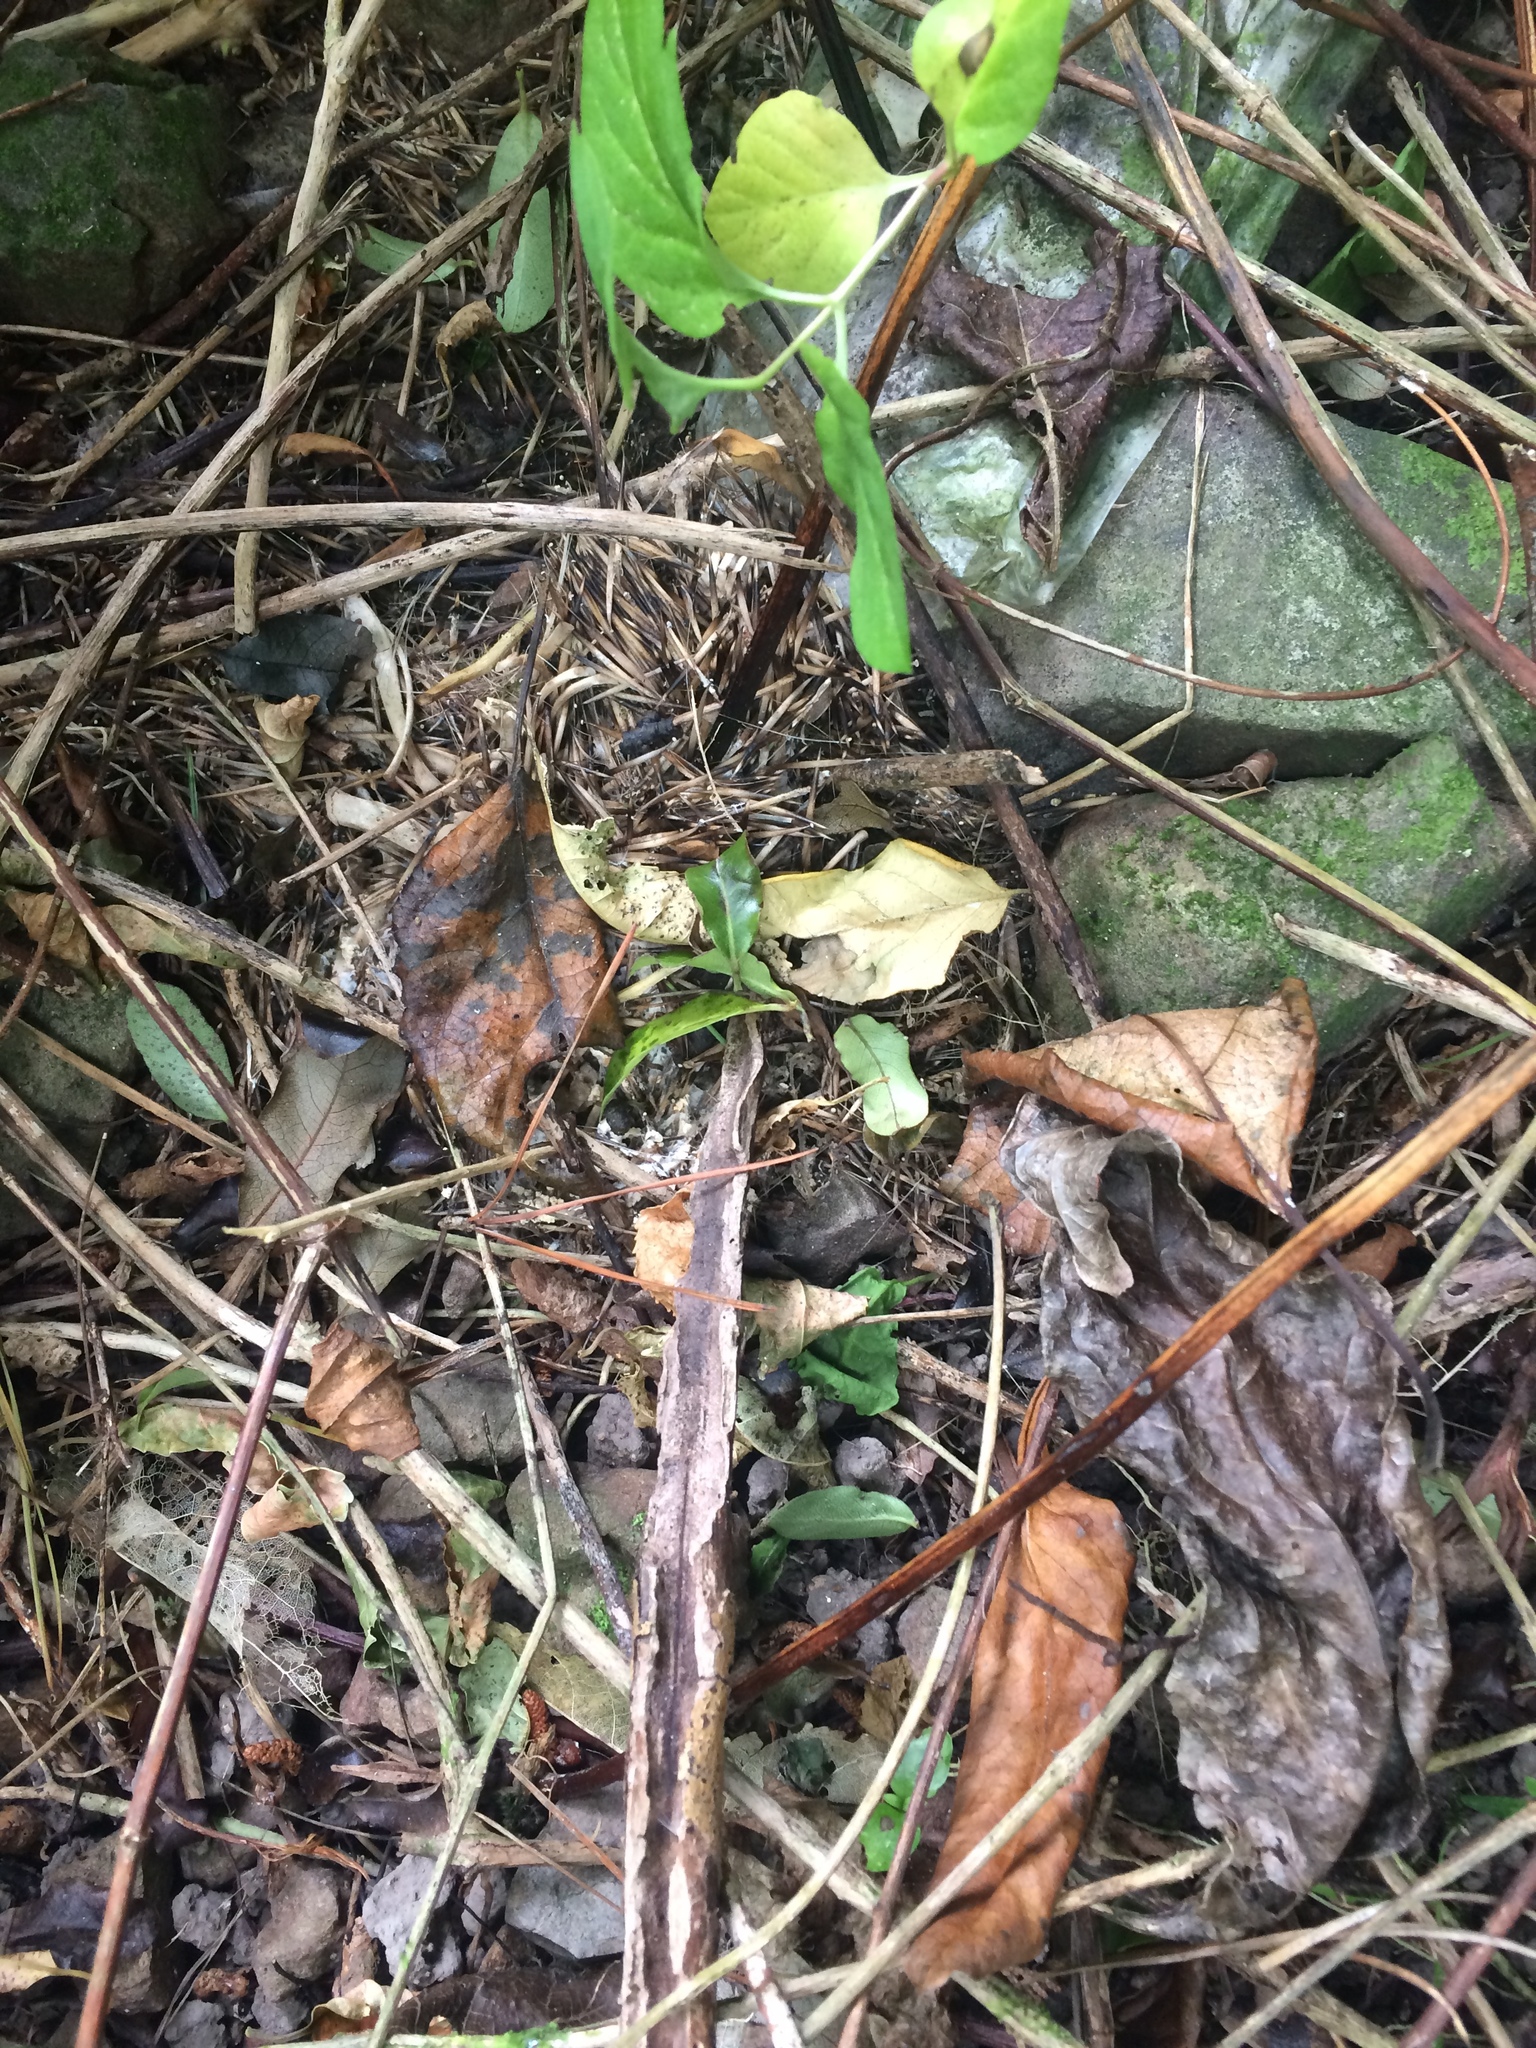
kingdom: Animalia
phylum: Chordata
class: Mammalia
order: Erinaceomorpha
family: Erinaceidae
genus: Erinaceus
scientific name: Erinaceus europaeus
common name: West european hedgehog
